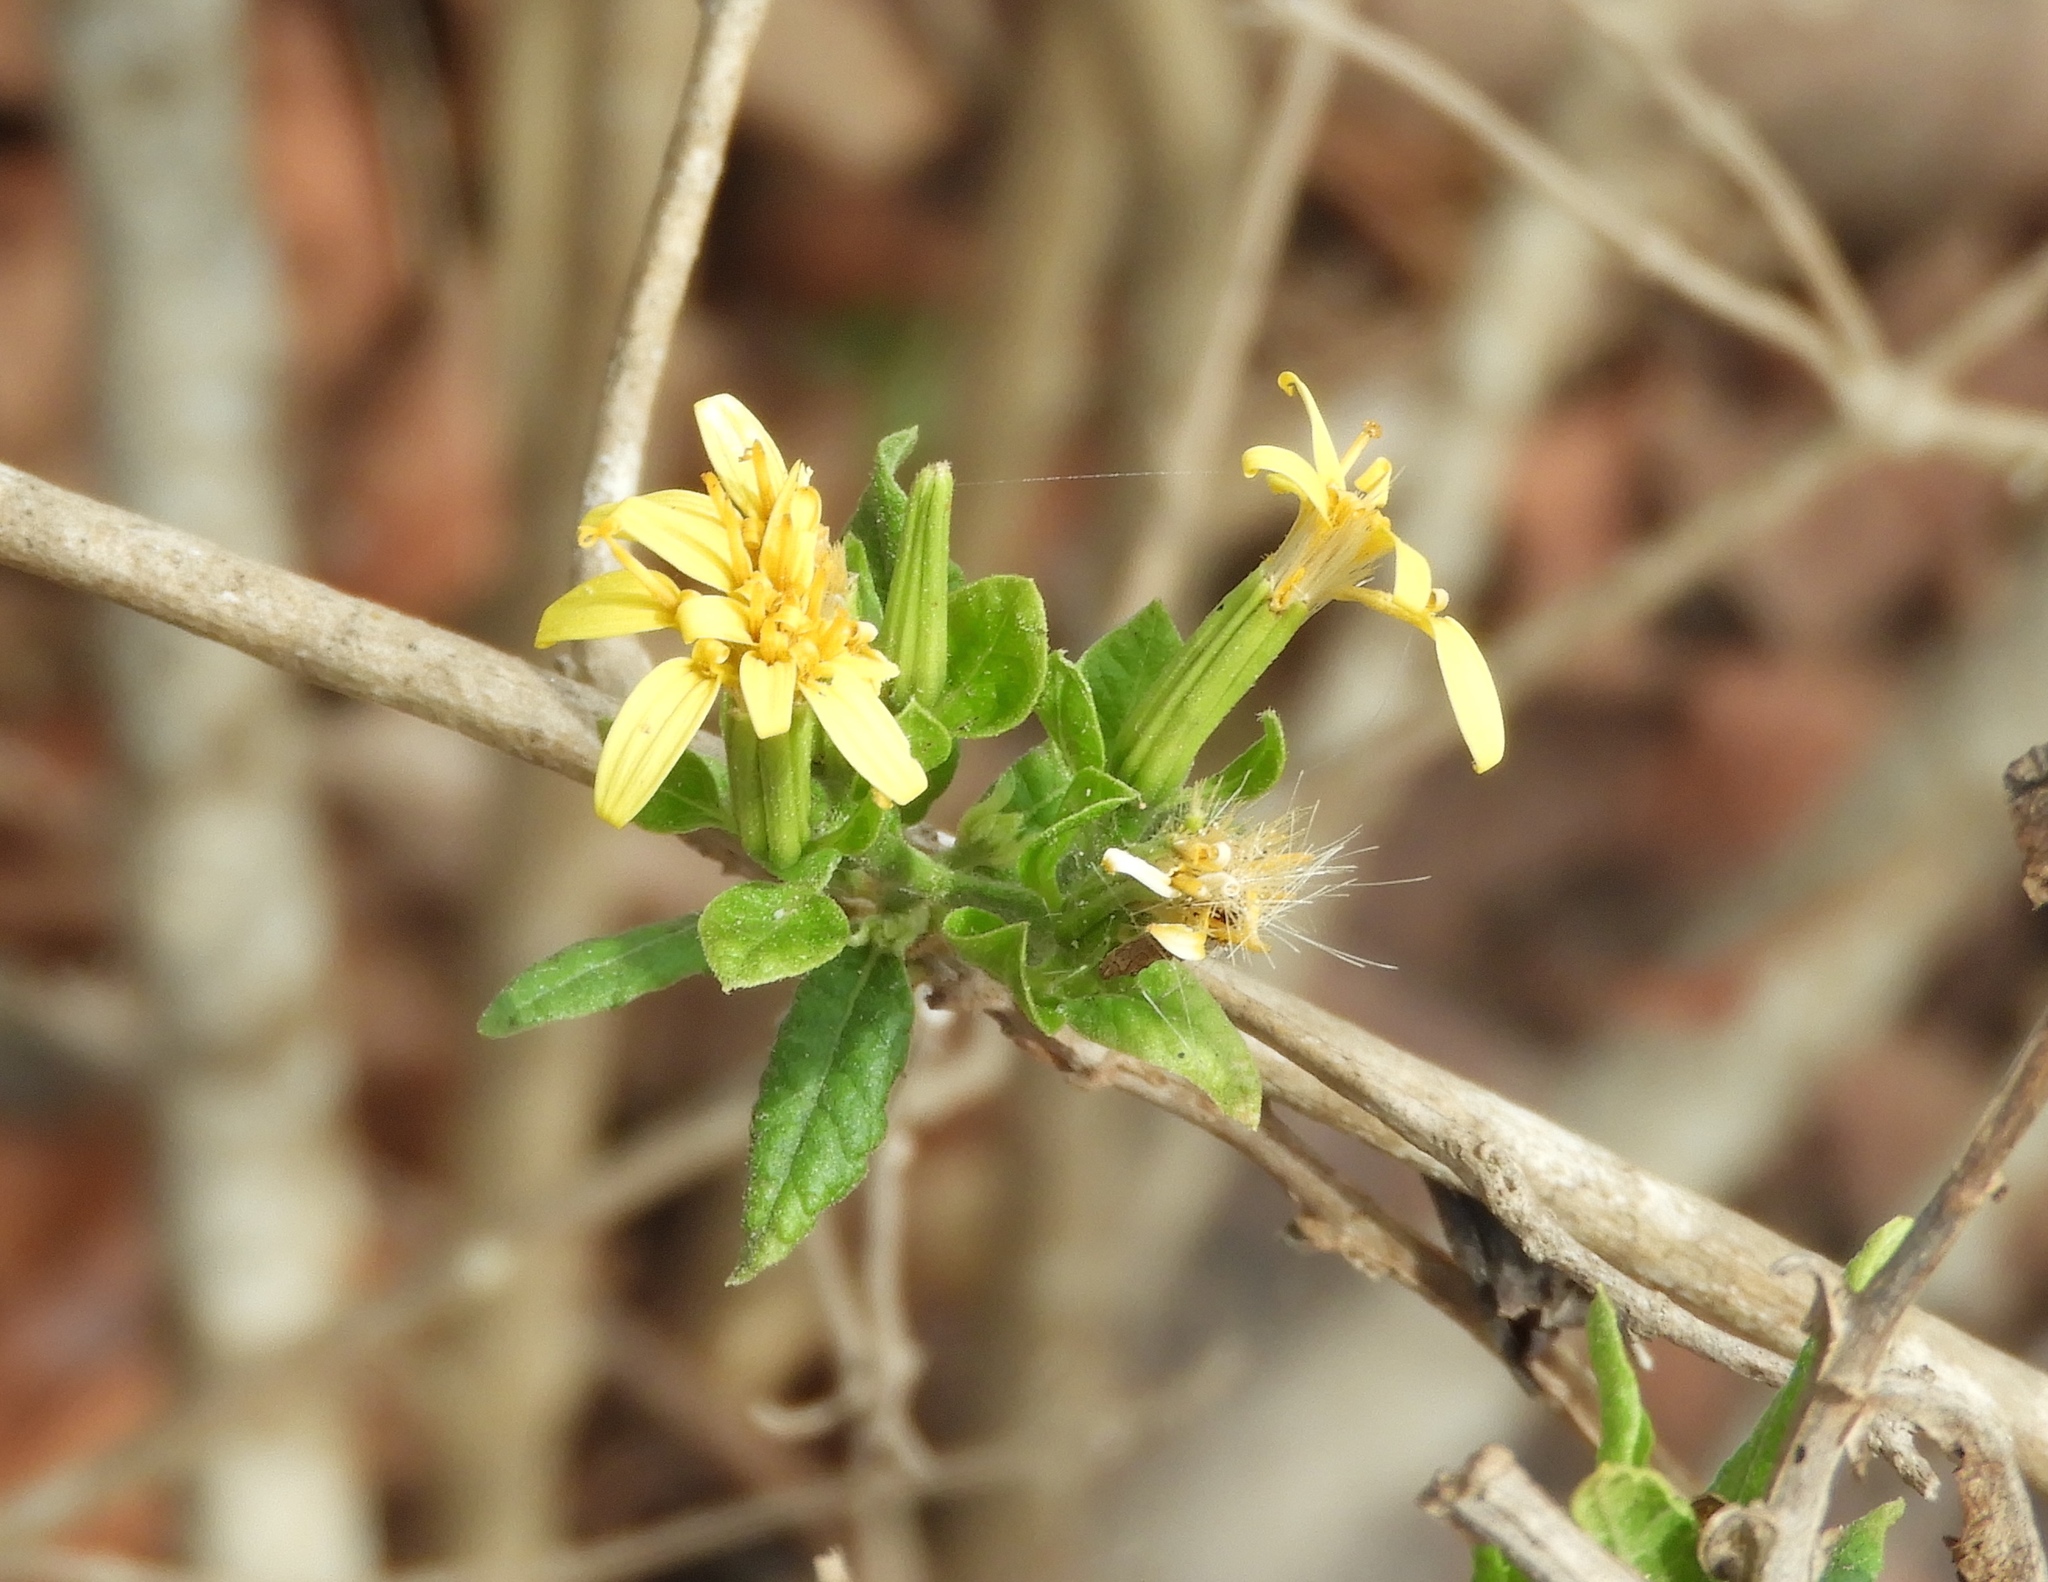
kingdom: Plantae
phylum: Tracheophyta
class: Magnoliopsida
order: Asterales
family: Asteraceae
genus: Trixis
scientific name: Trixis pterocaulis
